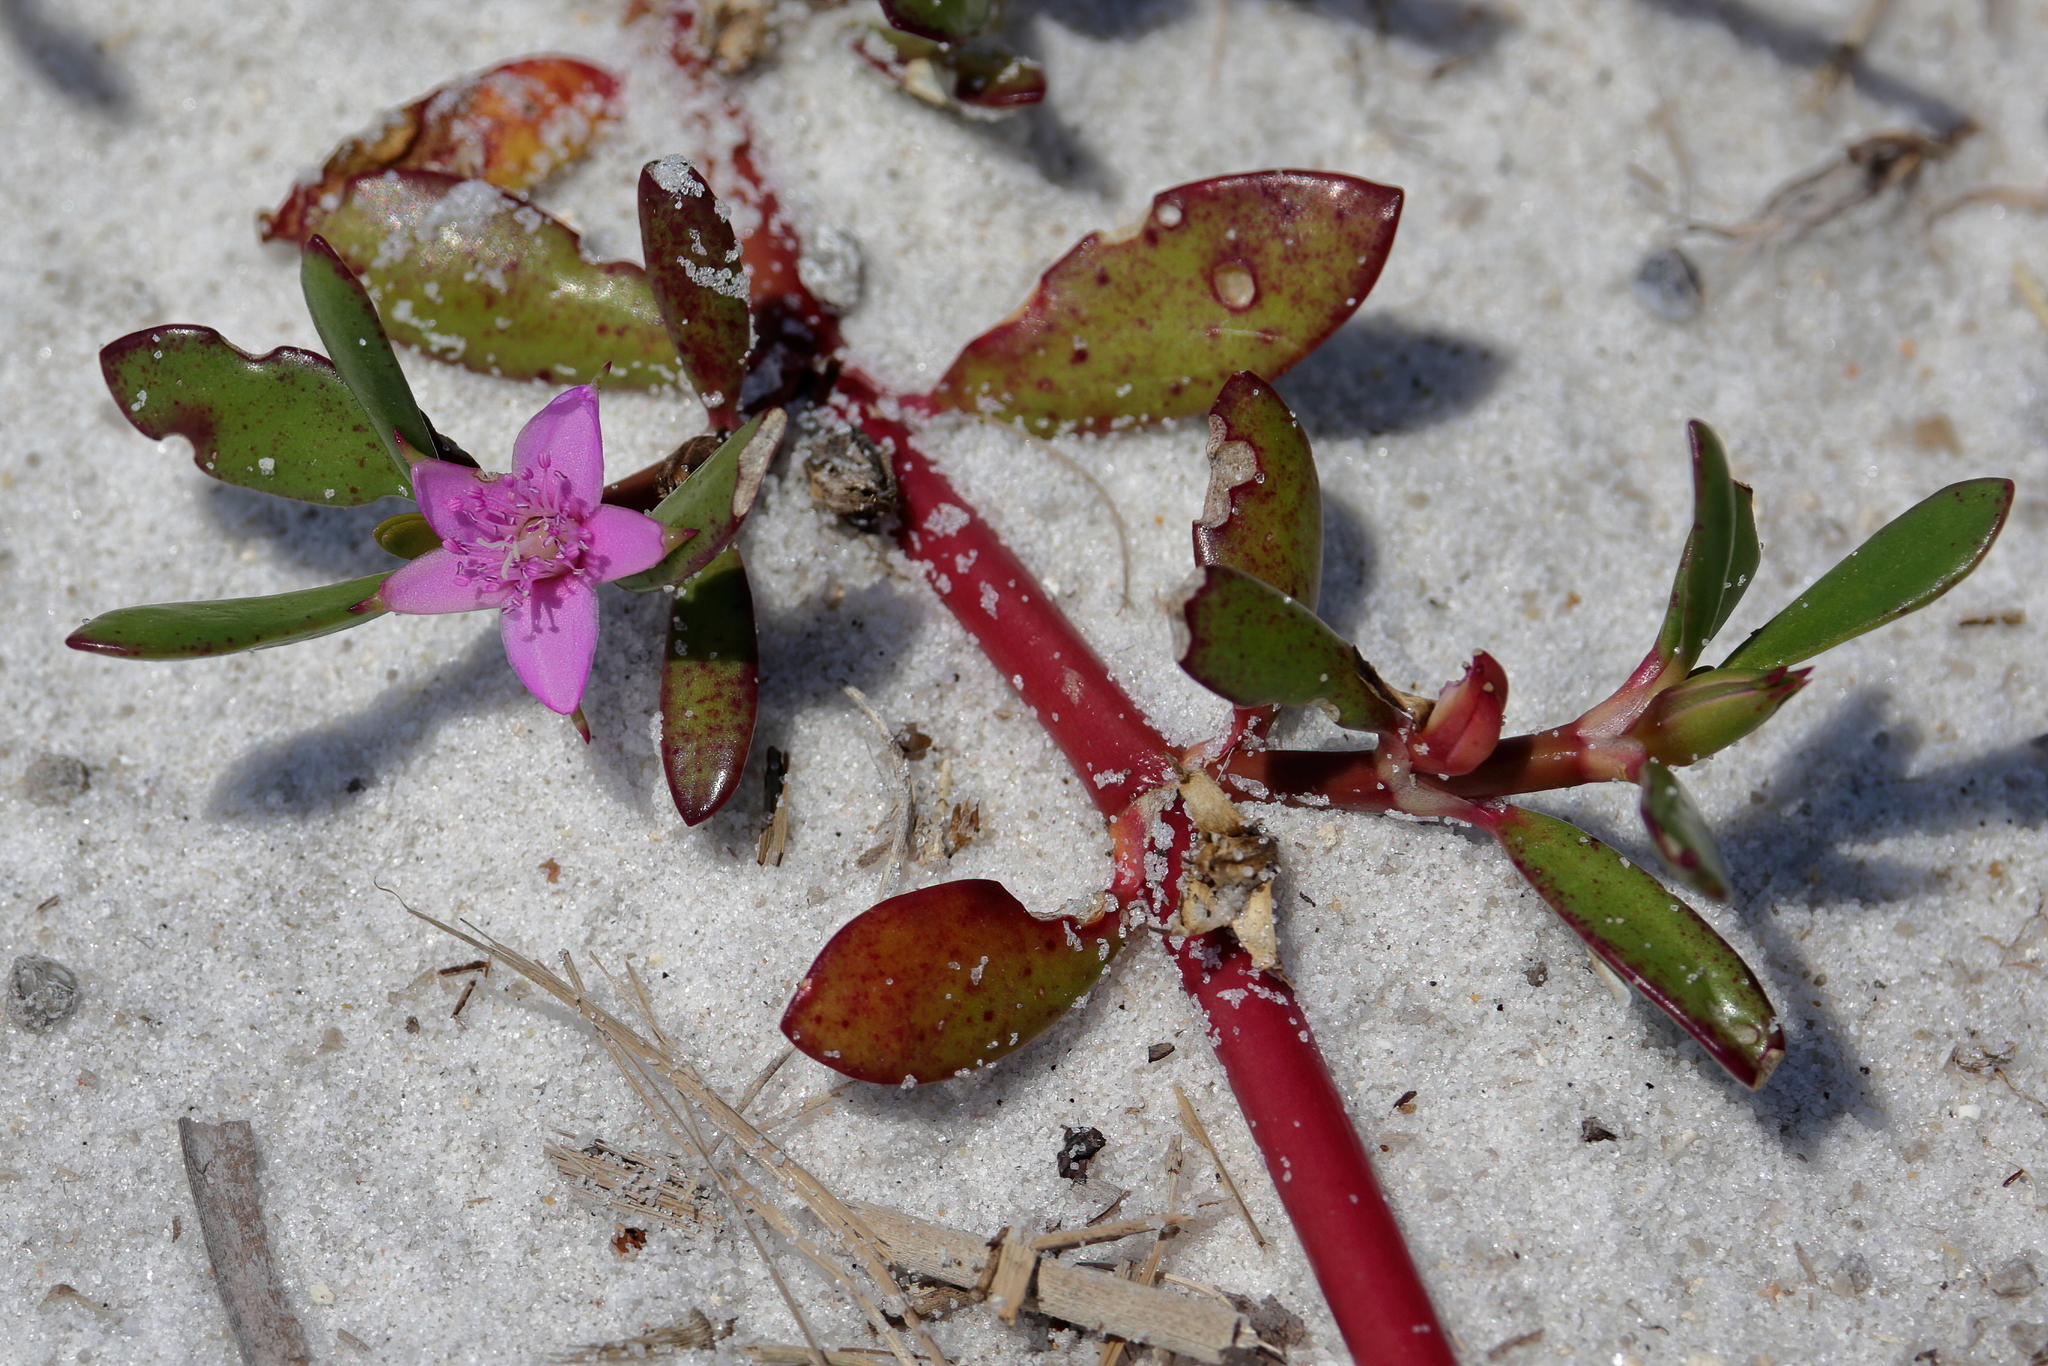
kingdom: Plantae
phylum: Tracheophyta
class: Magnoliopsida
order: Caryophyllales
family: Aizoaceae
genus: Sesuvium
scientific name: Sesuvium portulacastrum
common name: Sea-purslane
